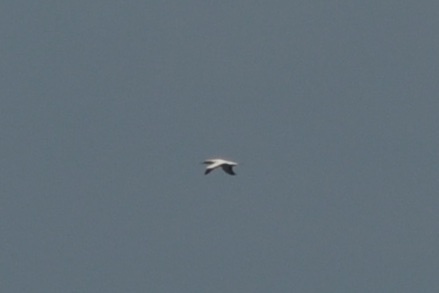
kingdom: Animalia
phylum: Chordata
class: Aves
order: Suliformes
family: Sulidae
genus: Morus
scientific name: Morus serrator
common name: Australasian gannet
